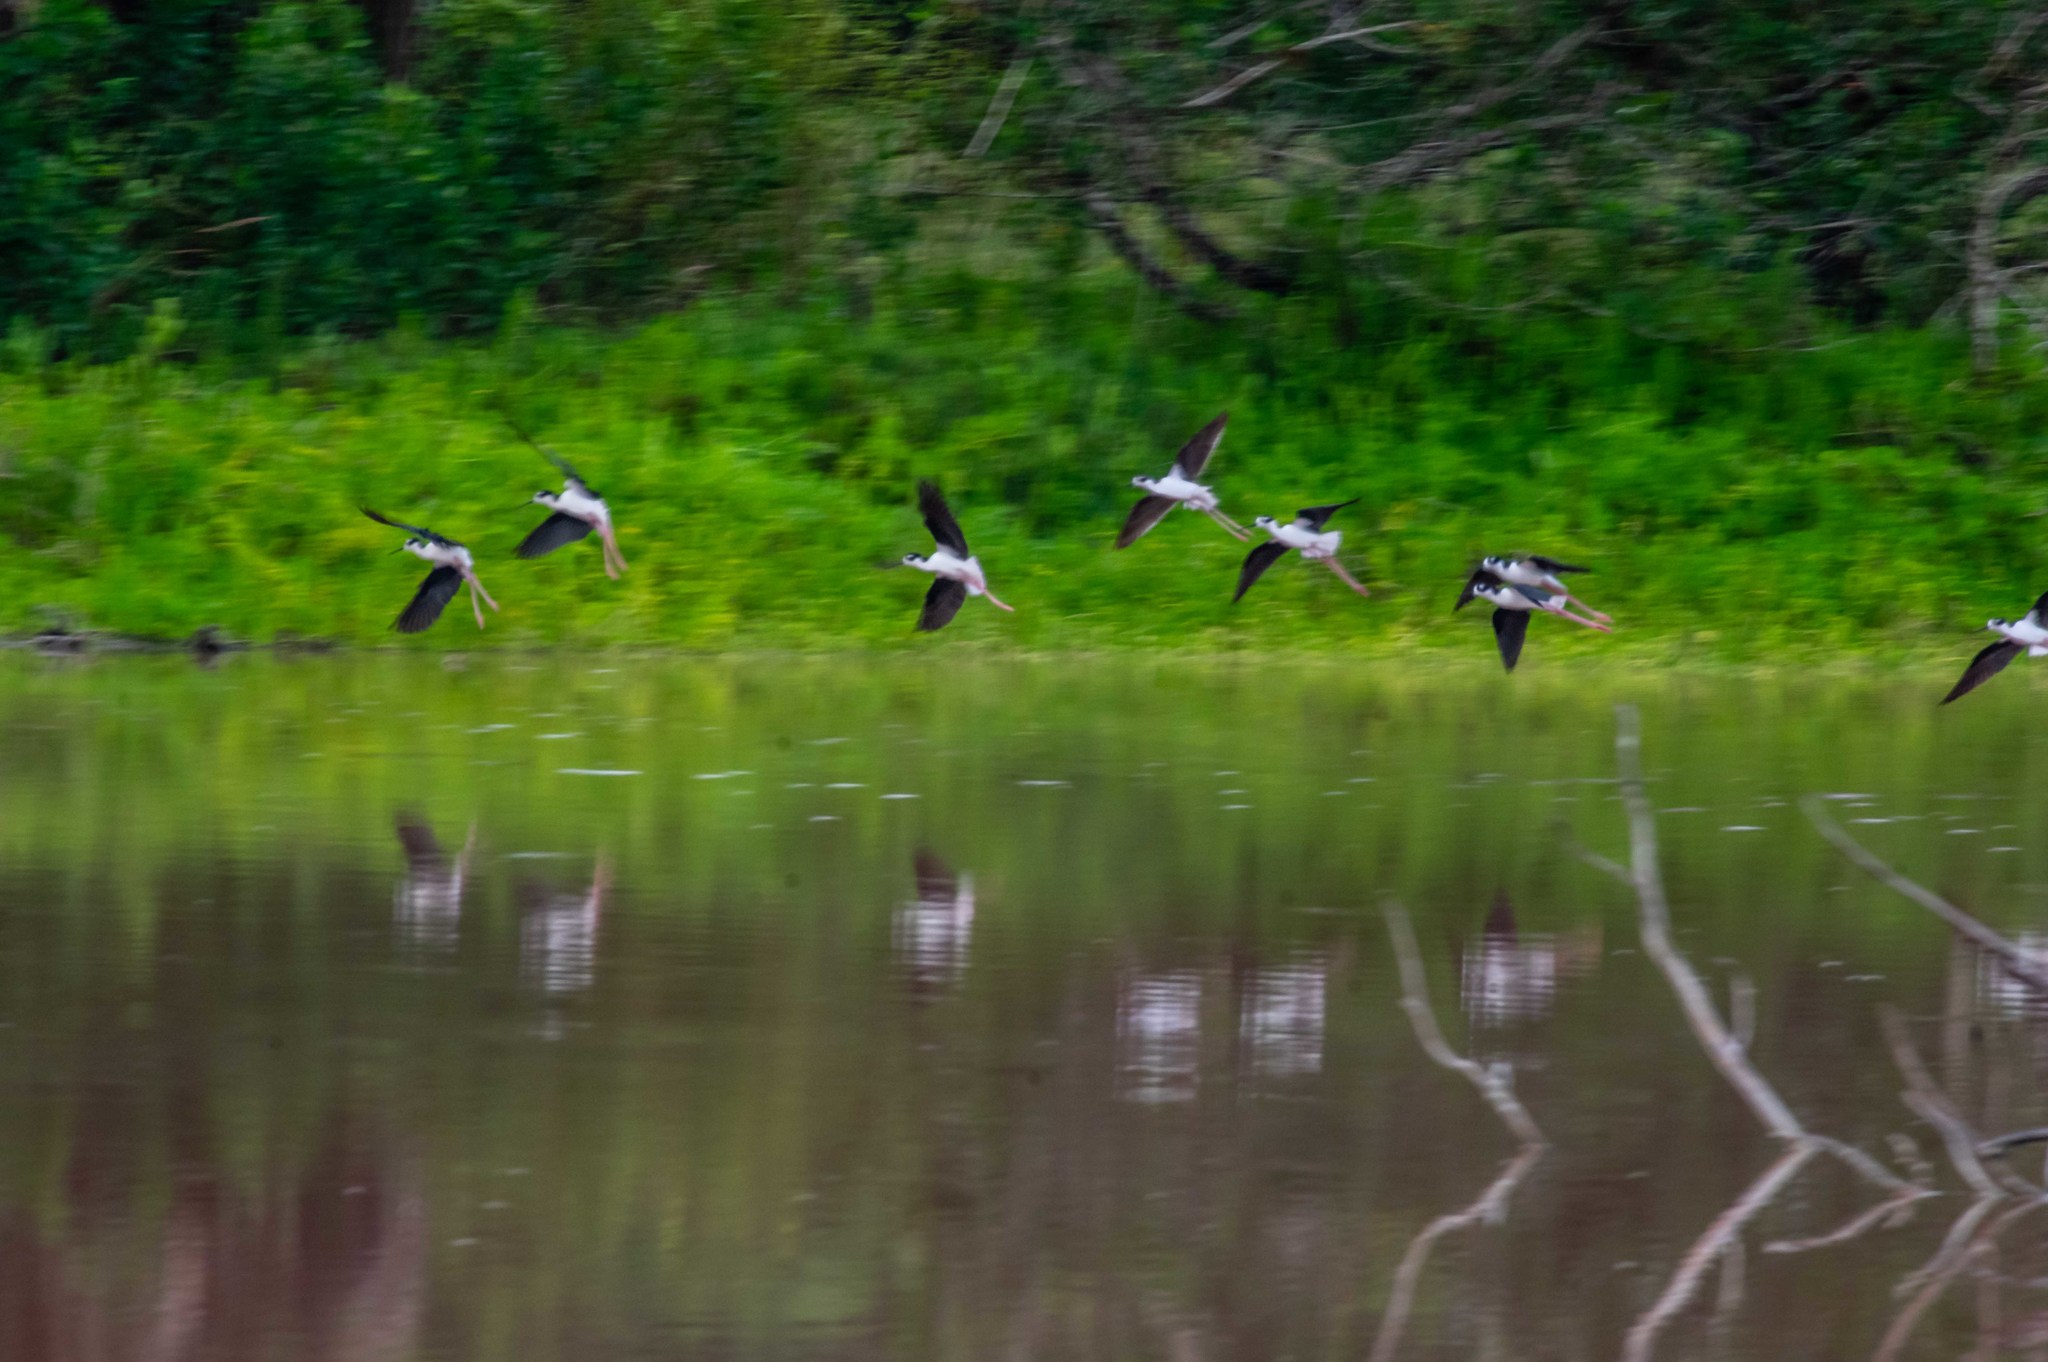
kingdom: Animalia
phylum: Chordata
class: Aves
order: Charadriiformes
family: Recurvirostridae
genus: Himantopus
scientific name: Himantopus mexicanus
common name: Black-necked stilt
